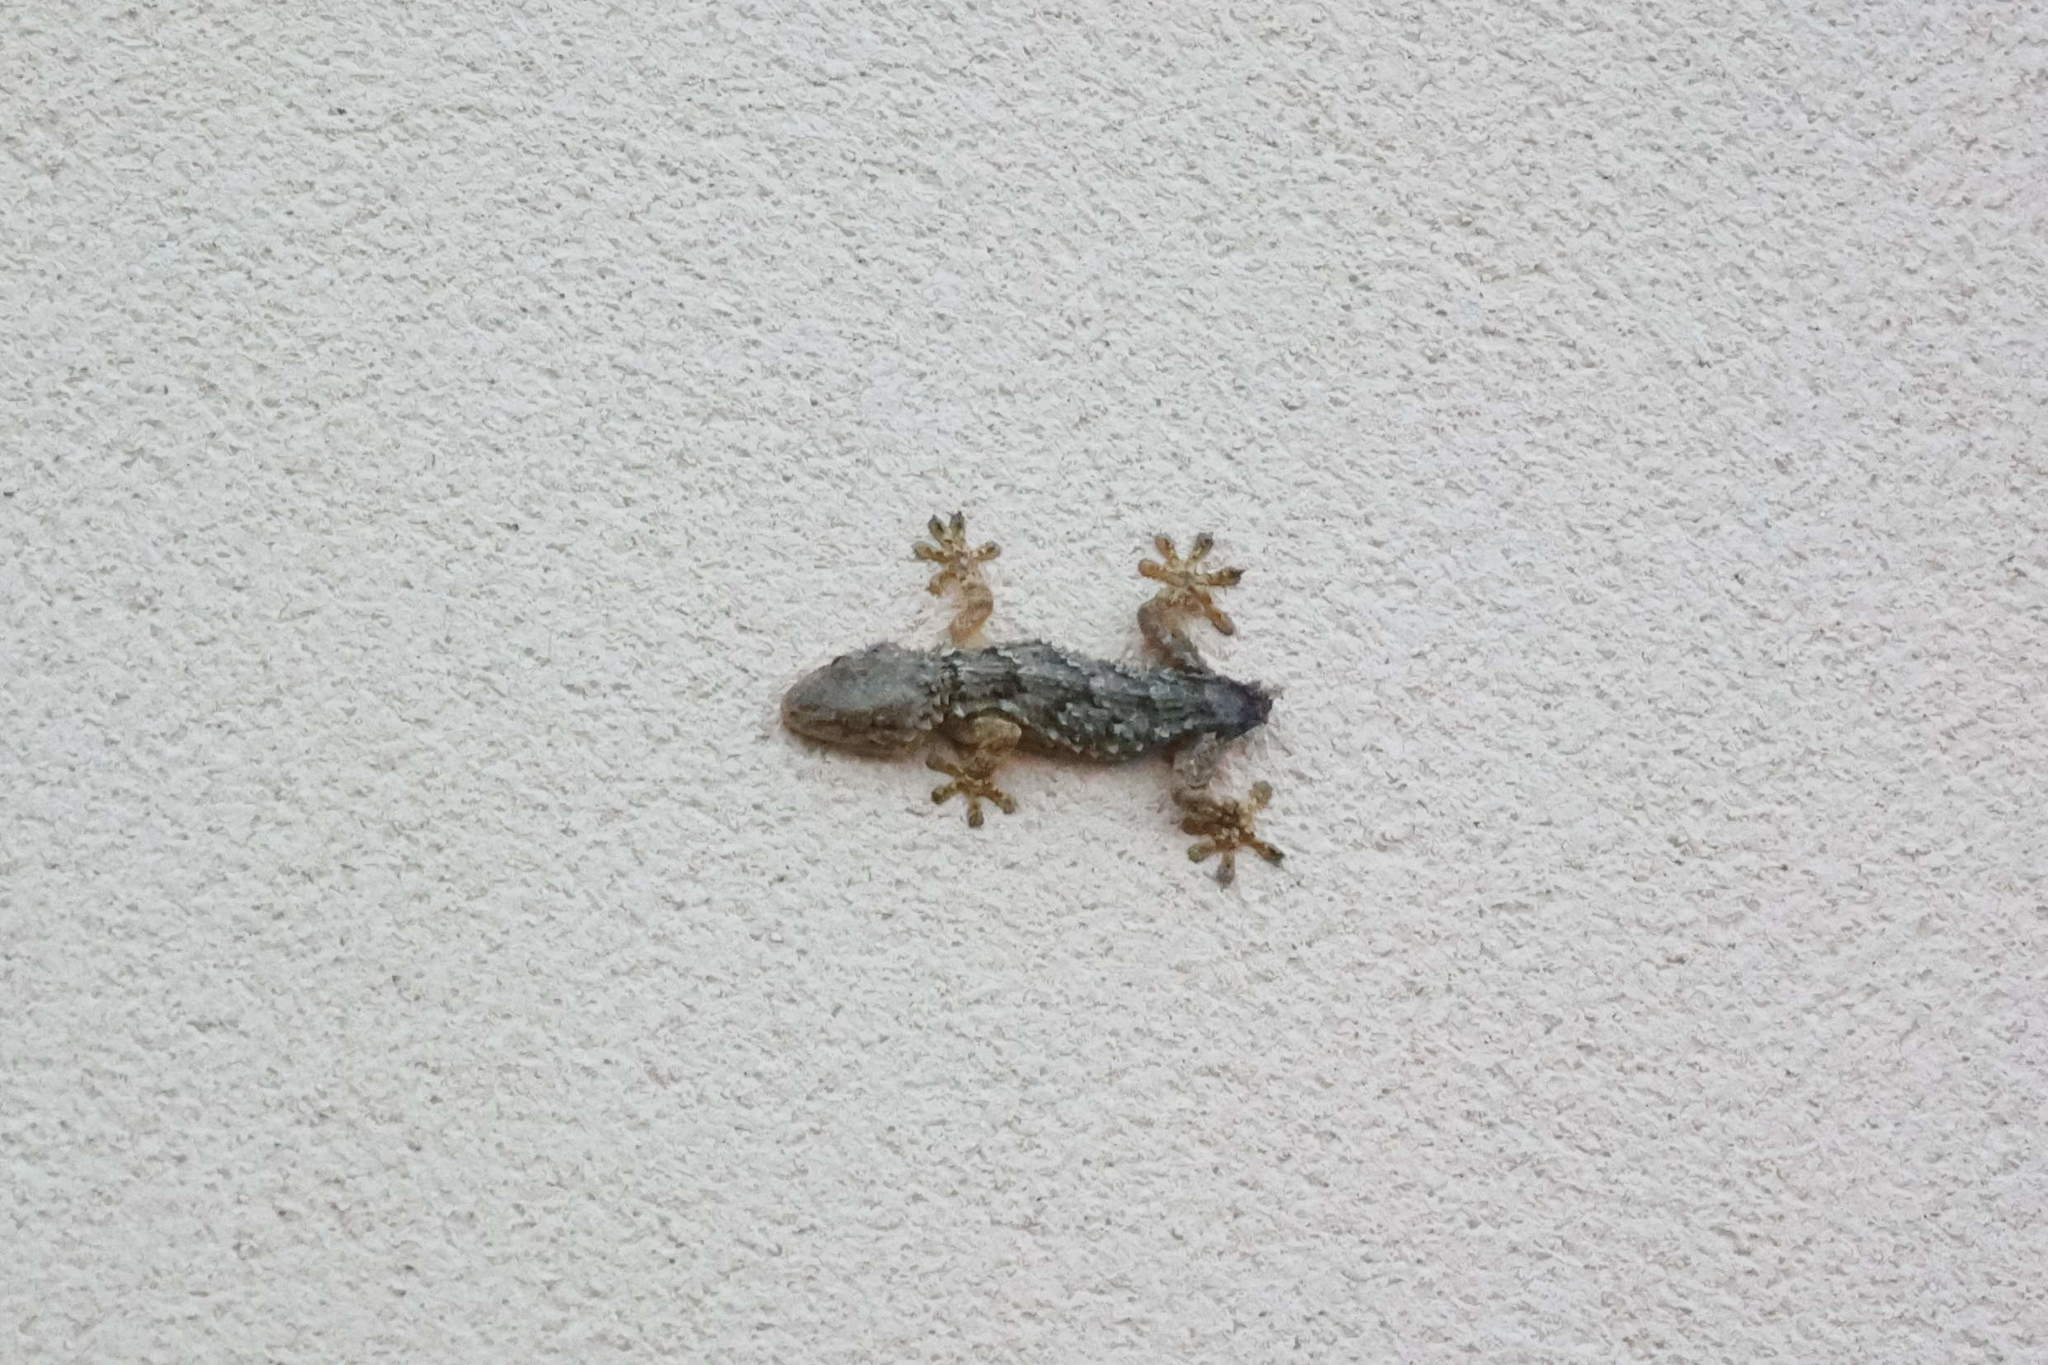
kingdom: Animalia
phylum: Chordata
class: Squamata
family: Phyllodactylidae
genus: Tarentola
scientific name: Tarentola mauritanica
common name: Moorish gecko
